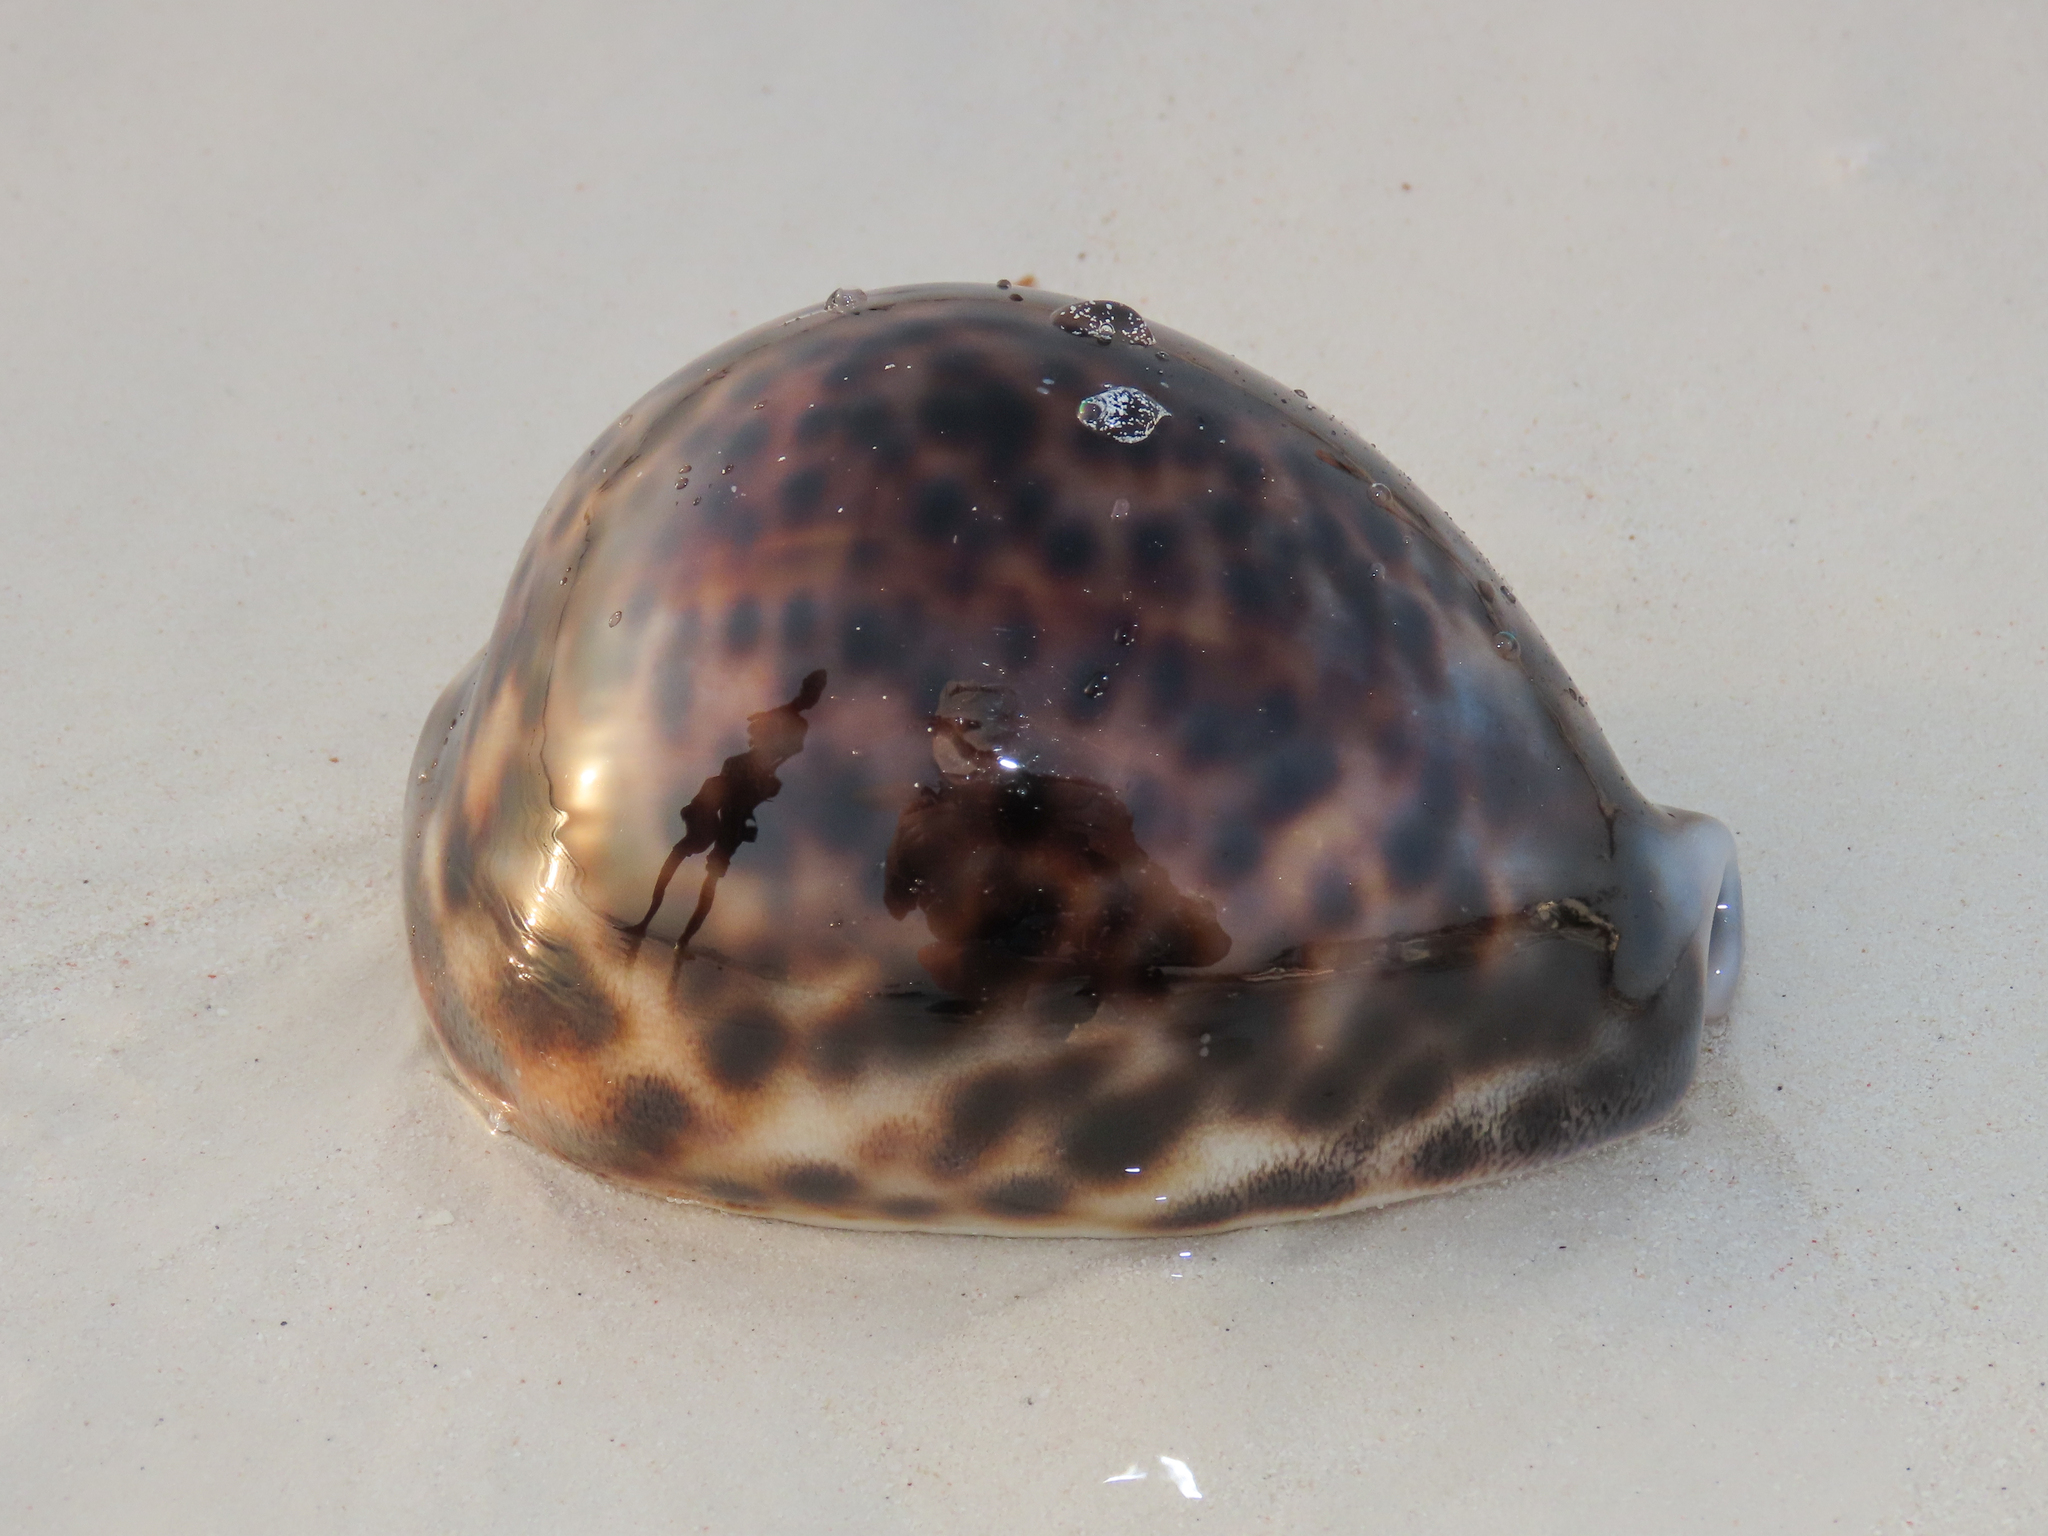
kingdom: Animalia
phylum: Mollusca
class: Gastropoda
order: Littorinimorpha
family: Cypraeidae
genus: Cypraea
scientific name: Cypraea tigris
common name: Tiger cowrie
